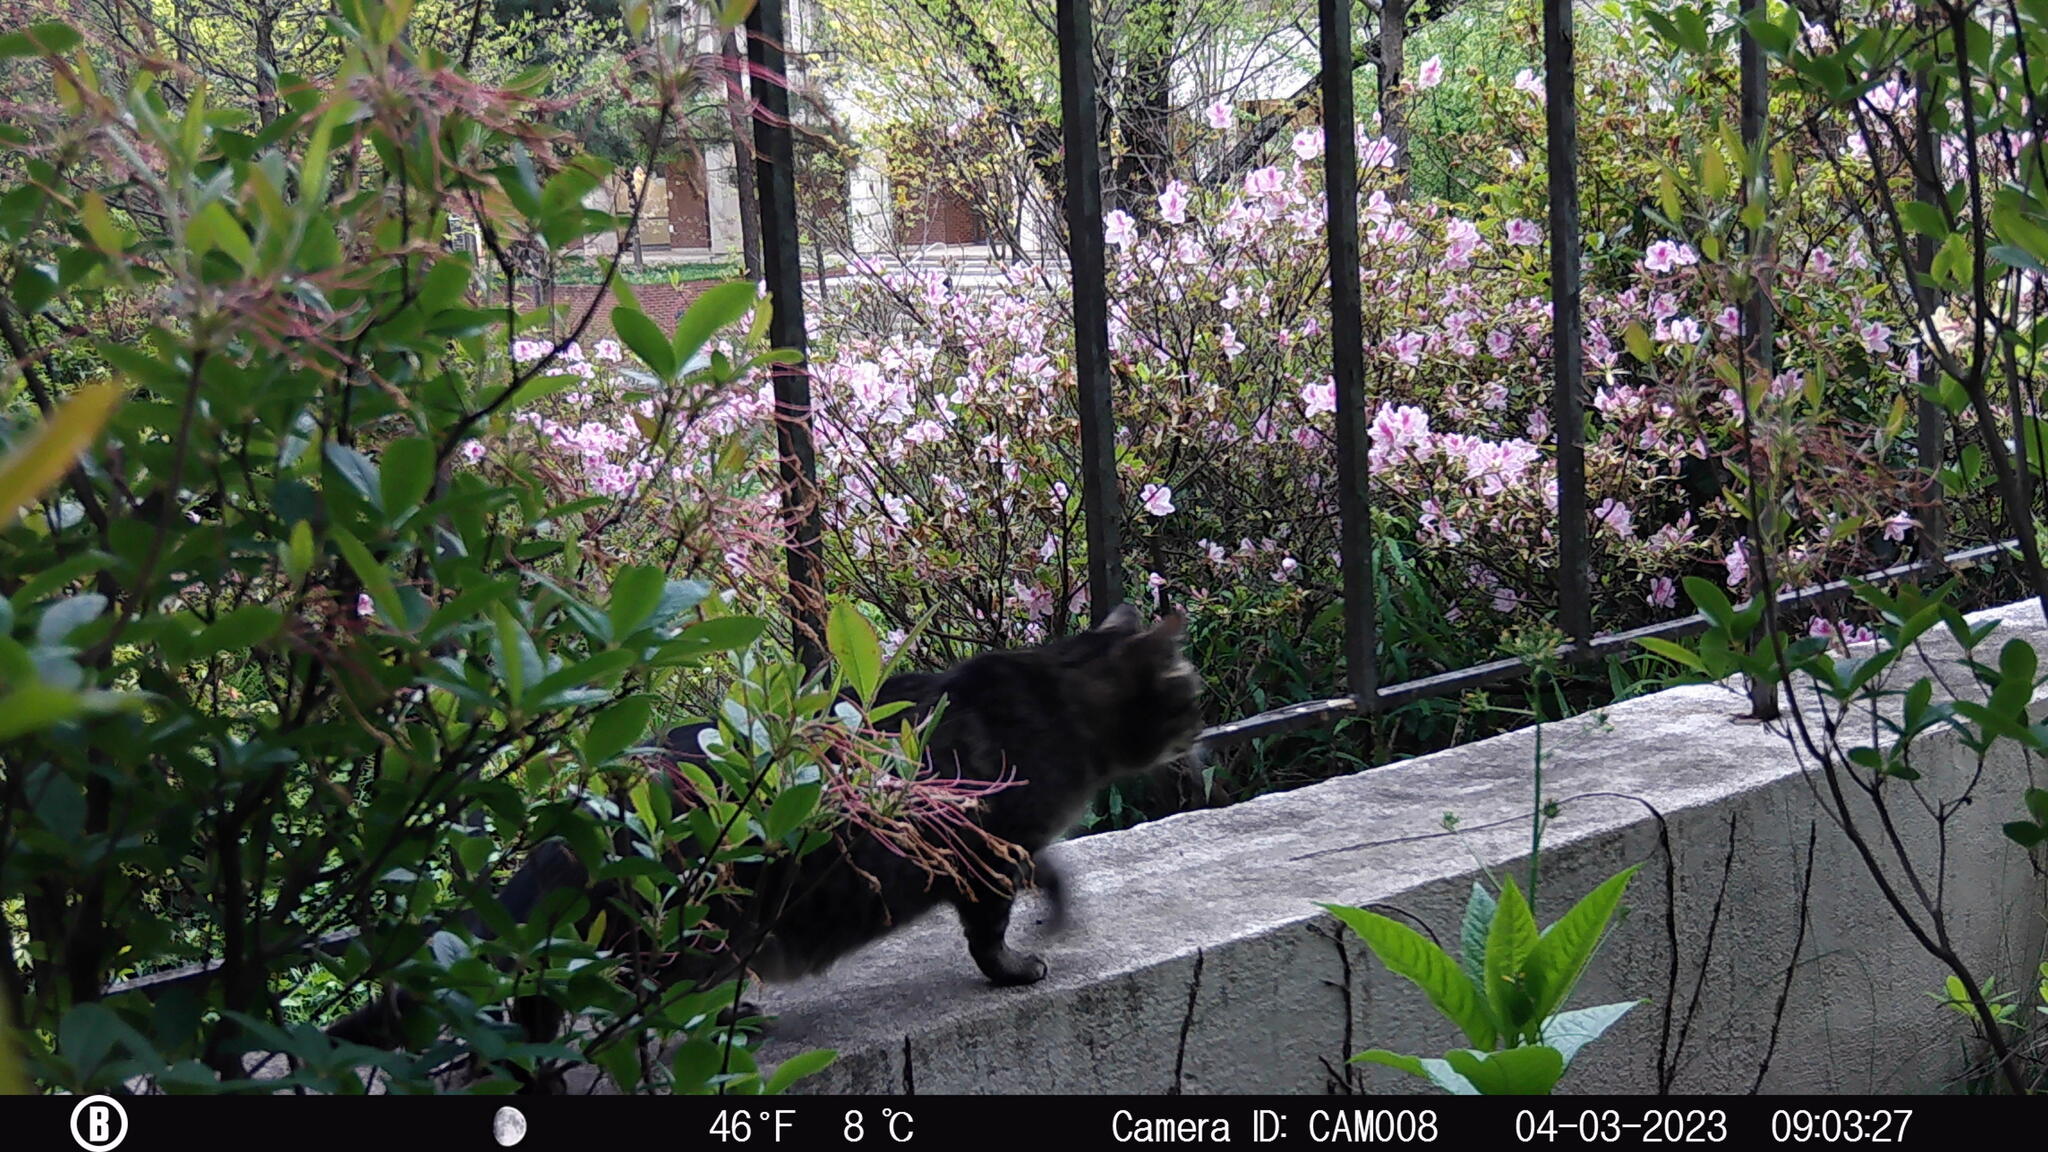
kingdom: Animalia
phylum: Chordata
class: Mammalia
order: Carnivora
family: Felidae
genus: Felis
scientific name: Felis catus
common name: Domestic cat
